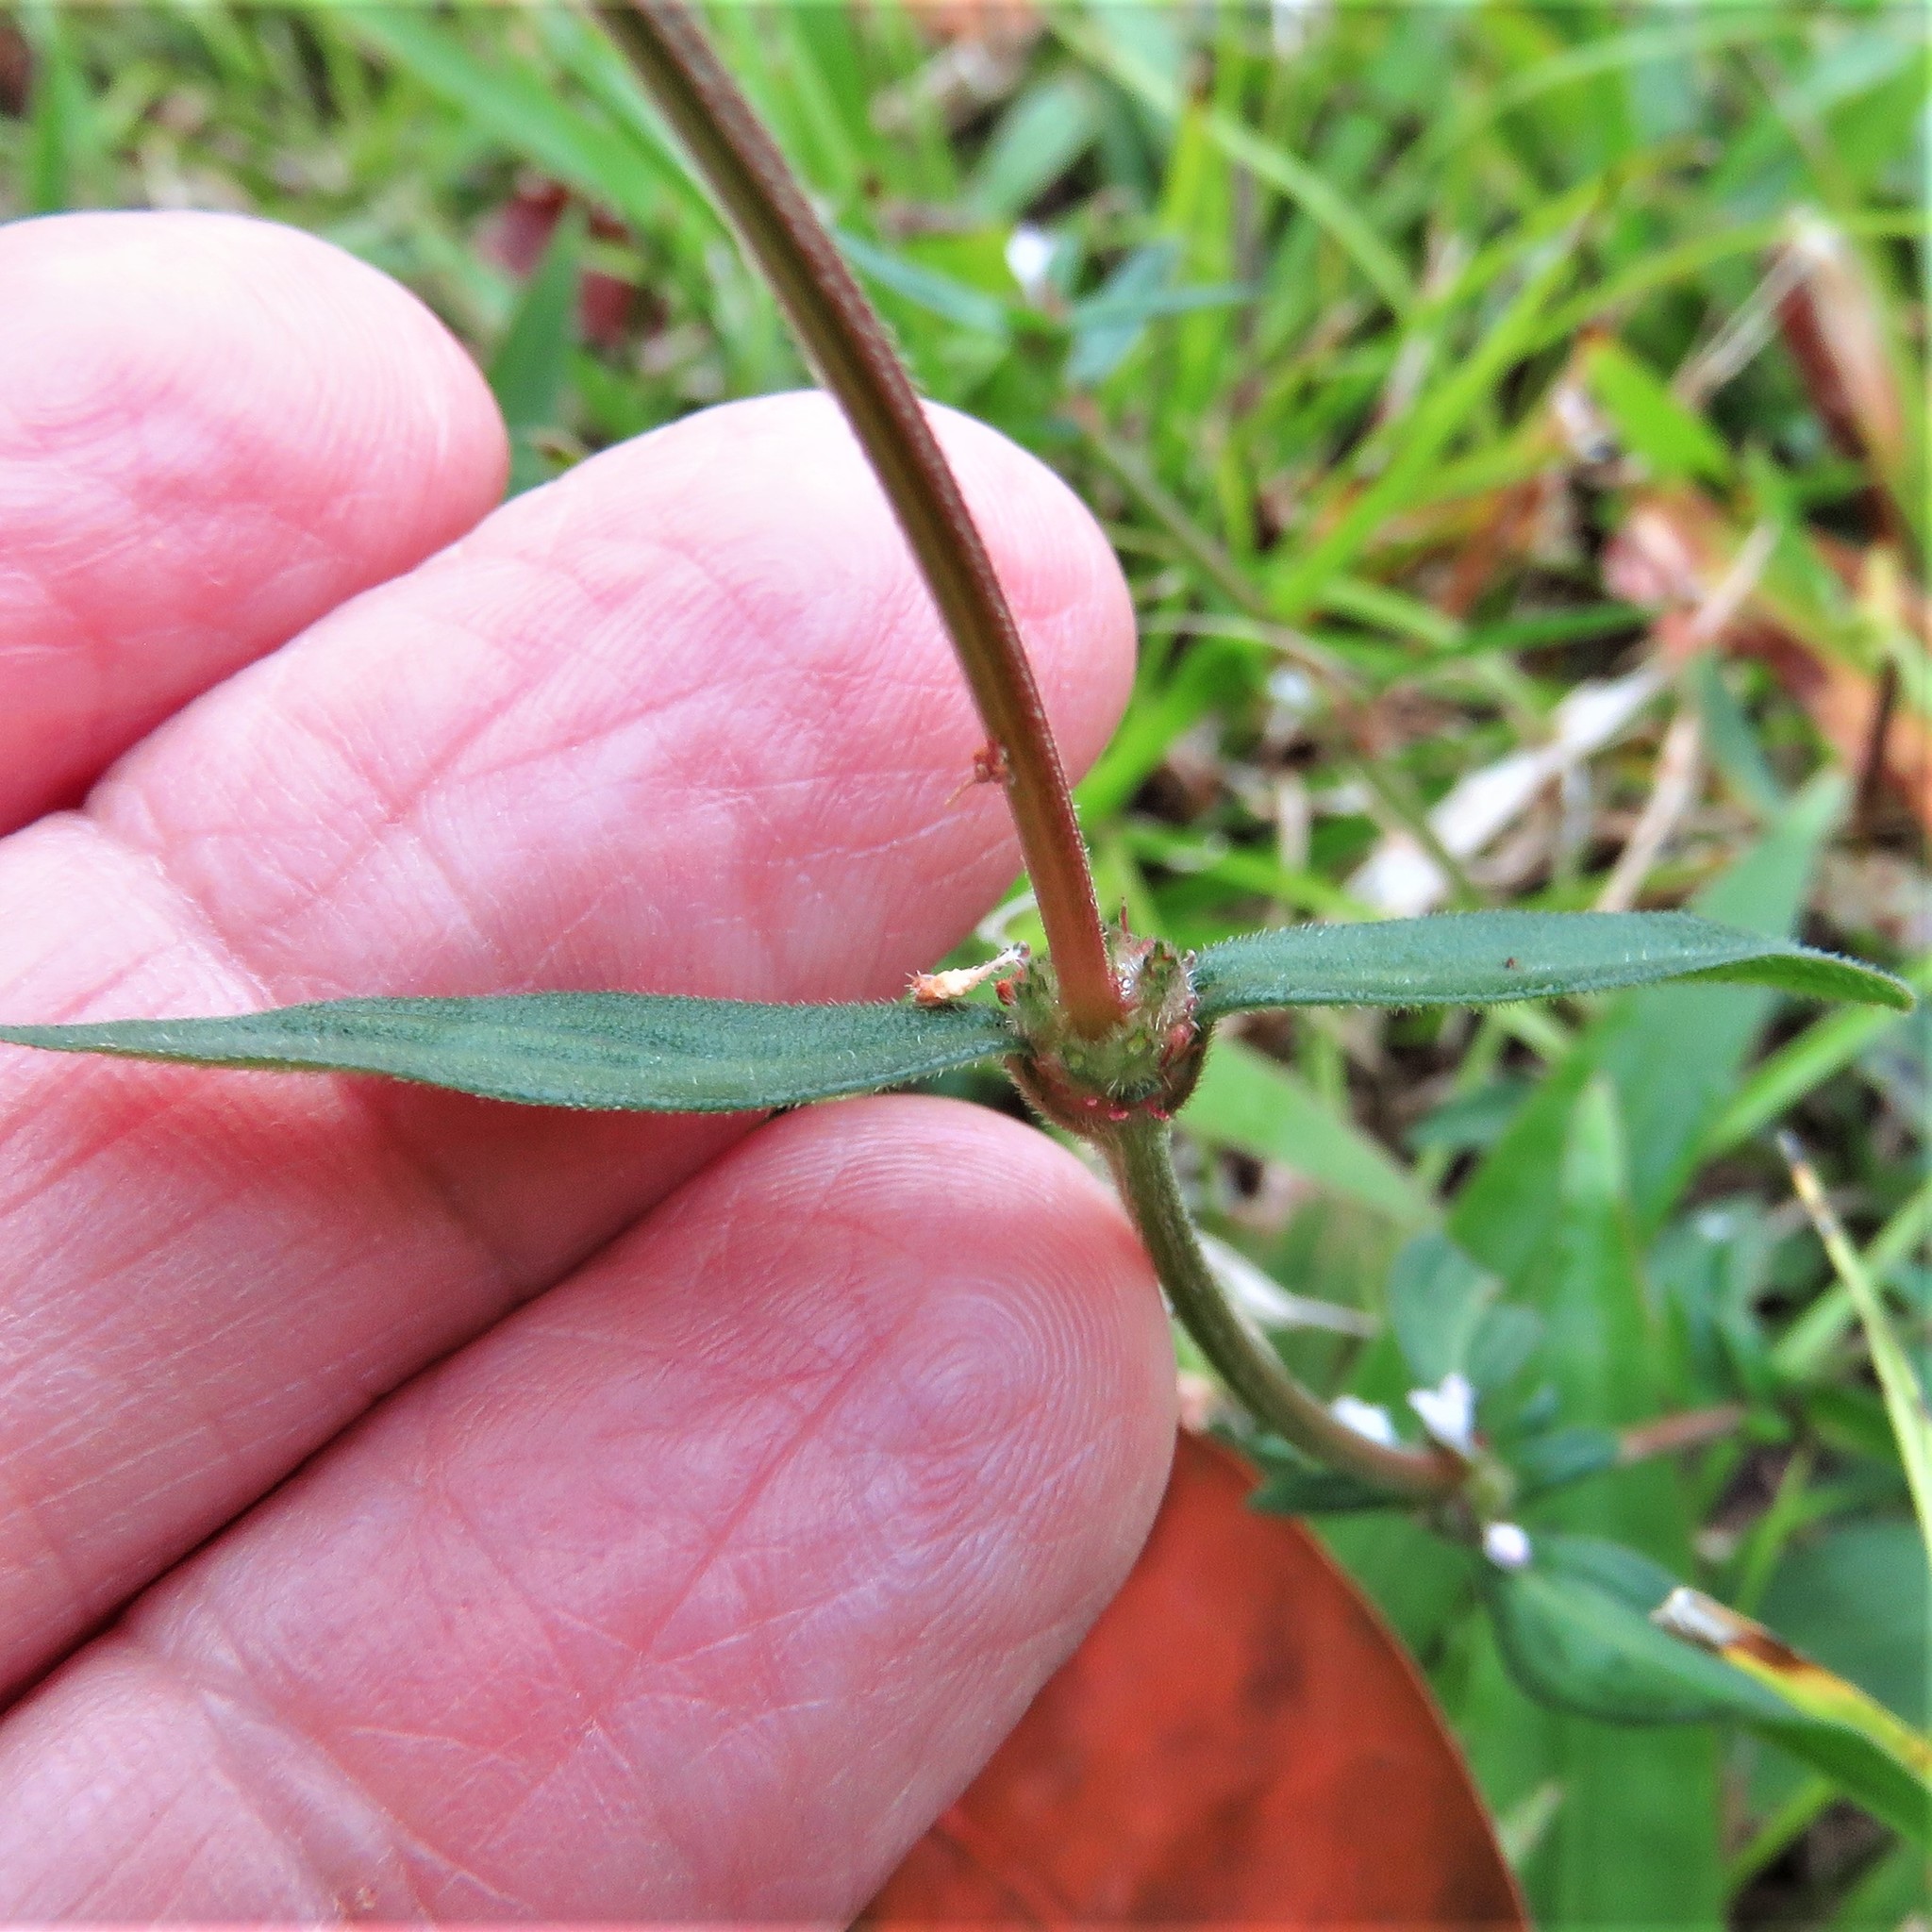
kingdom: Plantae
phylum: Tracheophyta
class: Magnoliopsida
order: Gentianales
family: Rubiaceae
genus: Spermacoce
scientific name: Spermacoce remota
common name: Woodland false buttonweed
